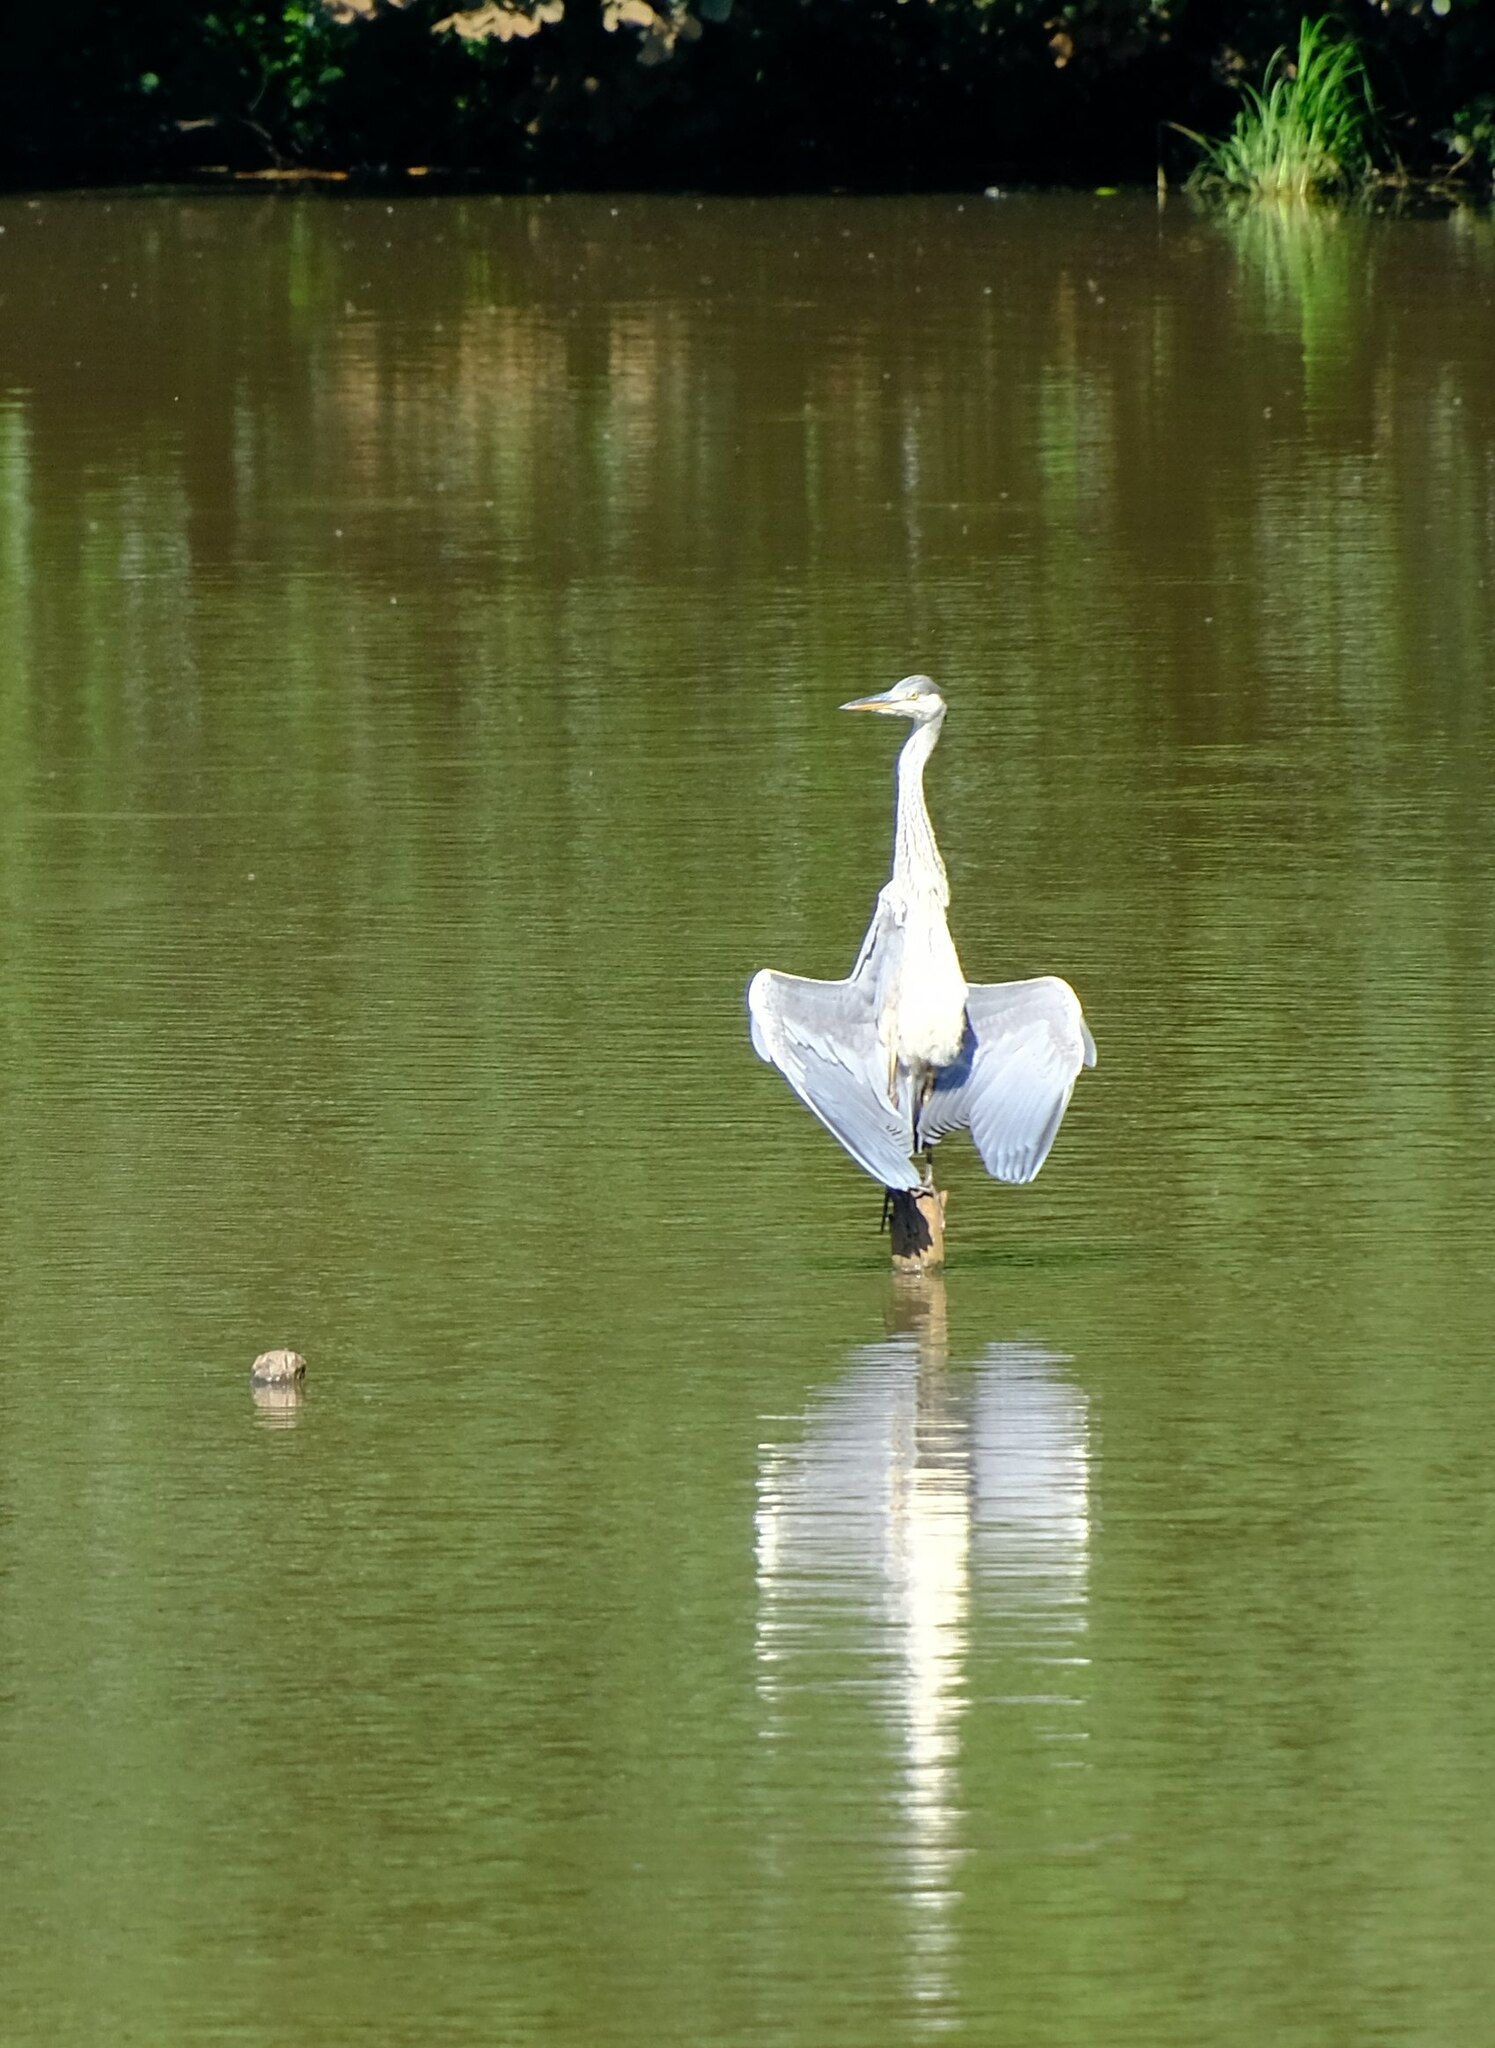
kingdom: Animalia
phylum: Chordata
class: Aves
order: Pelecaniformes
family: Ardeidae
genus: Ardea
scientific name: Ardea cinerea
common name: Grey heron
